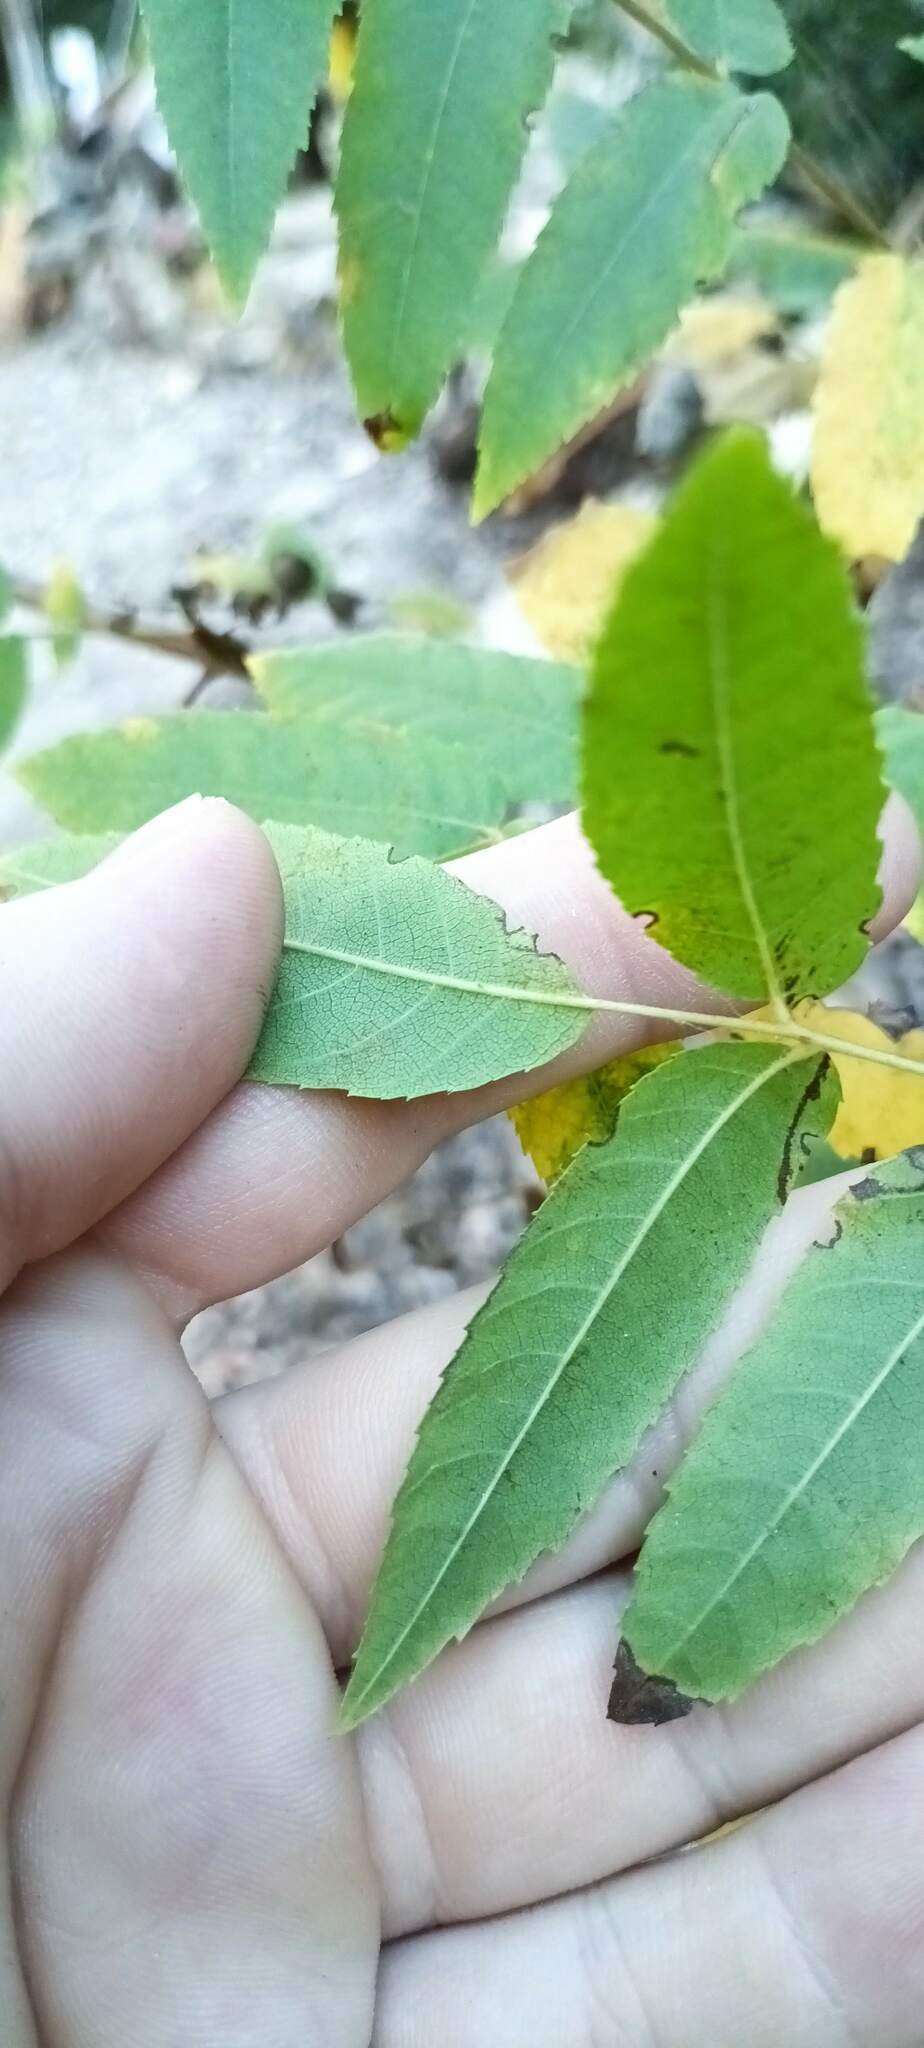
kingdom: Plantae
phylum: Tracheophyta
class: Magnoliopsida
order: Fagales
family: Juglandaceae
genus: Juglans
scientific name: Juglans californica
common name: Southern california black walnut
